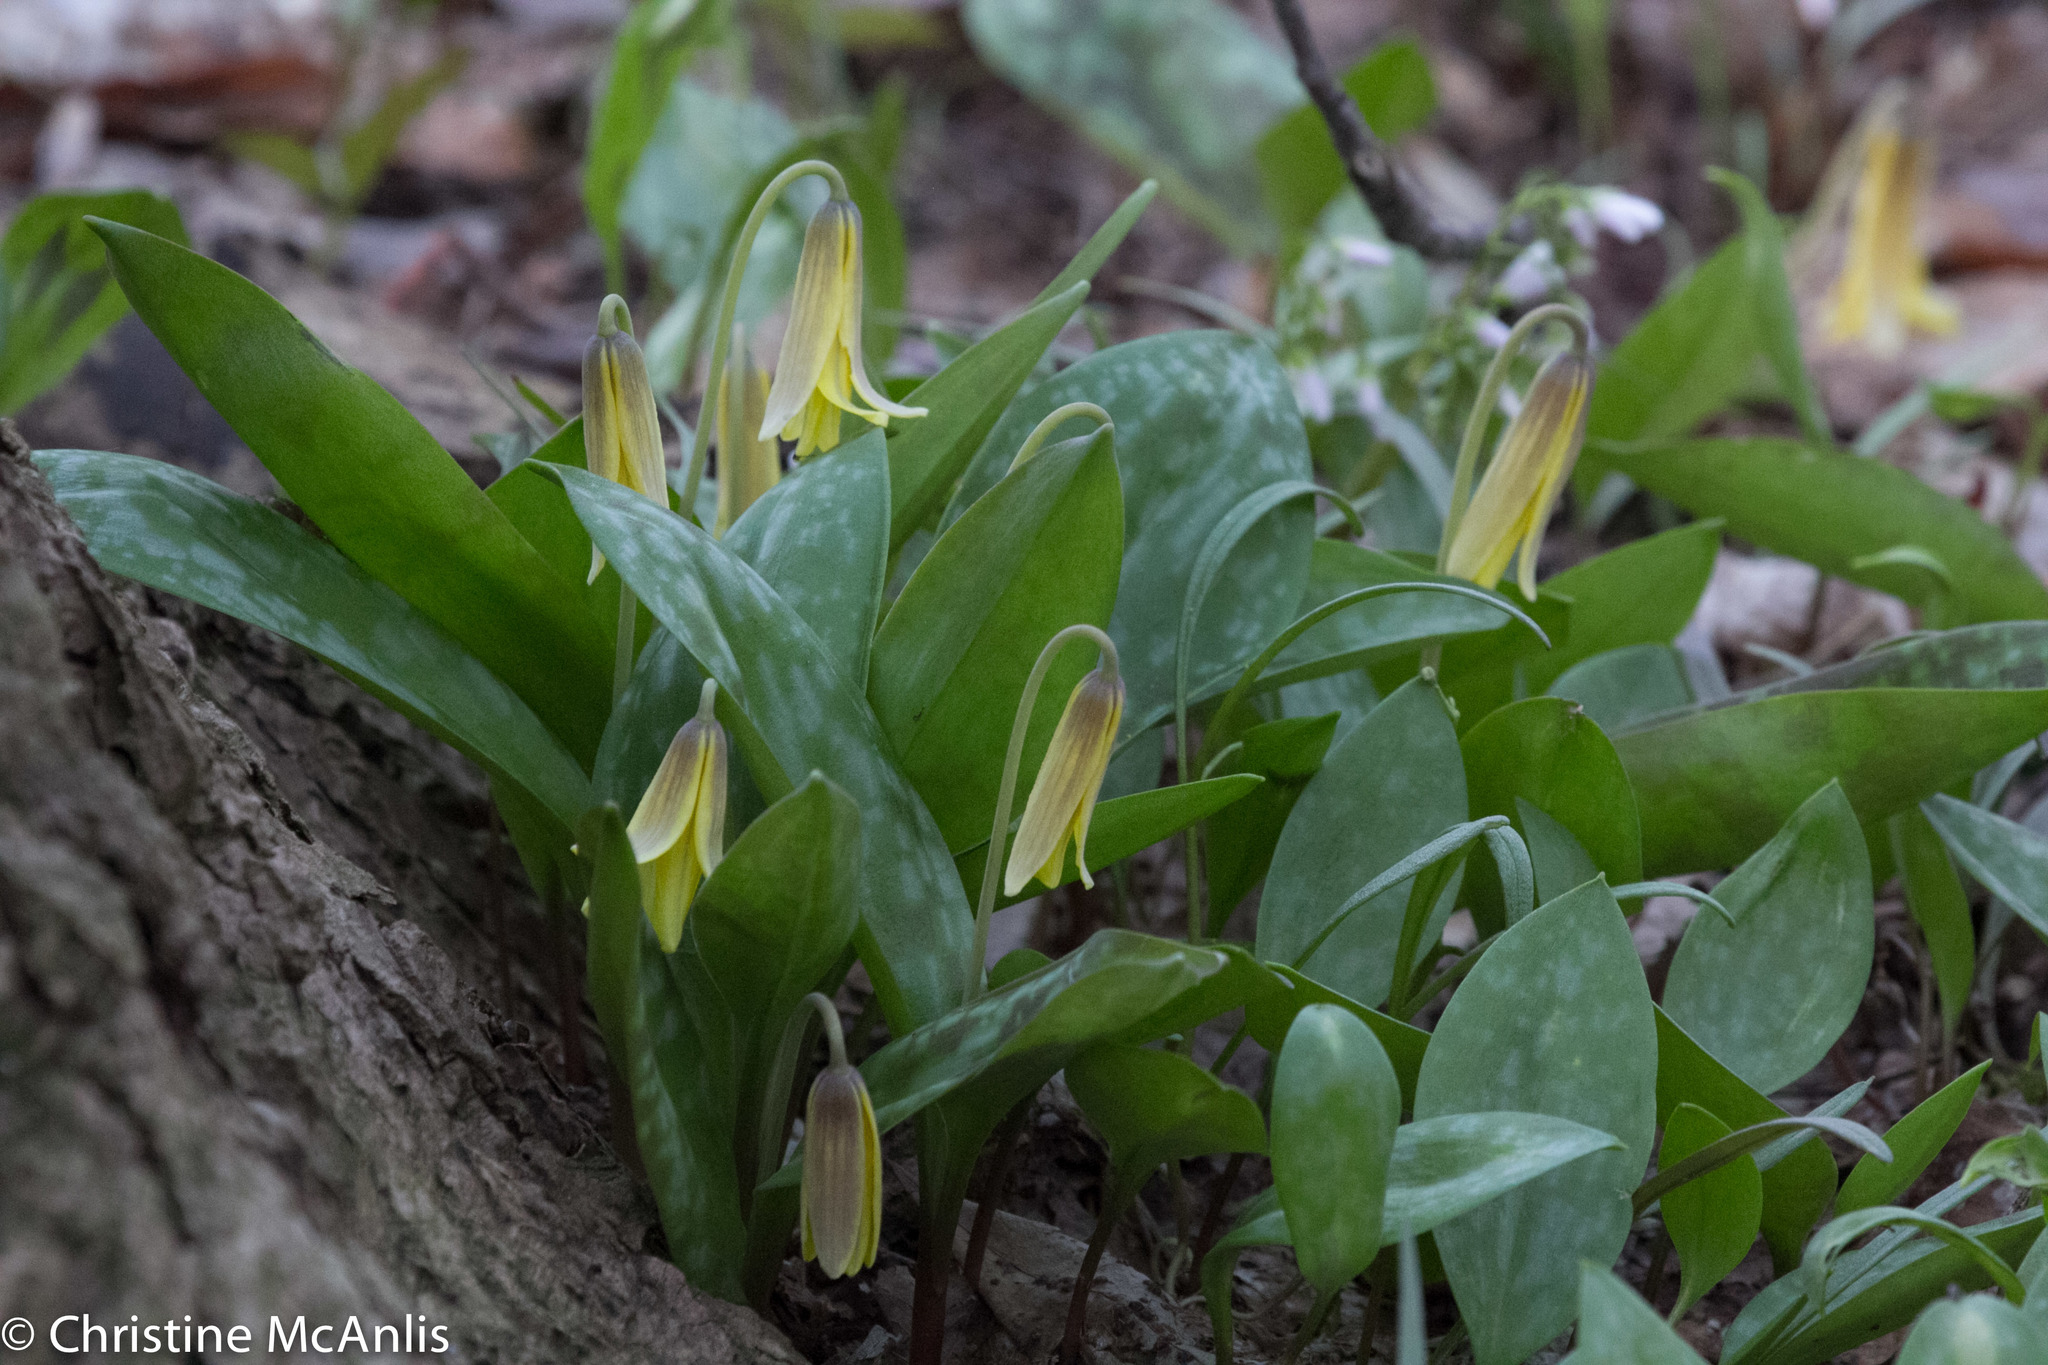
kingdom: Plantae
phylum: Tracheophyta
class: Liliopsida
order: Liliales
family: Liliaceae
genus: Erythronium
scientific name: Erythronium americanum
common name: Yellow adder's-tongue
